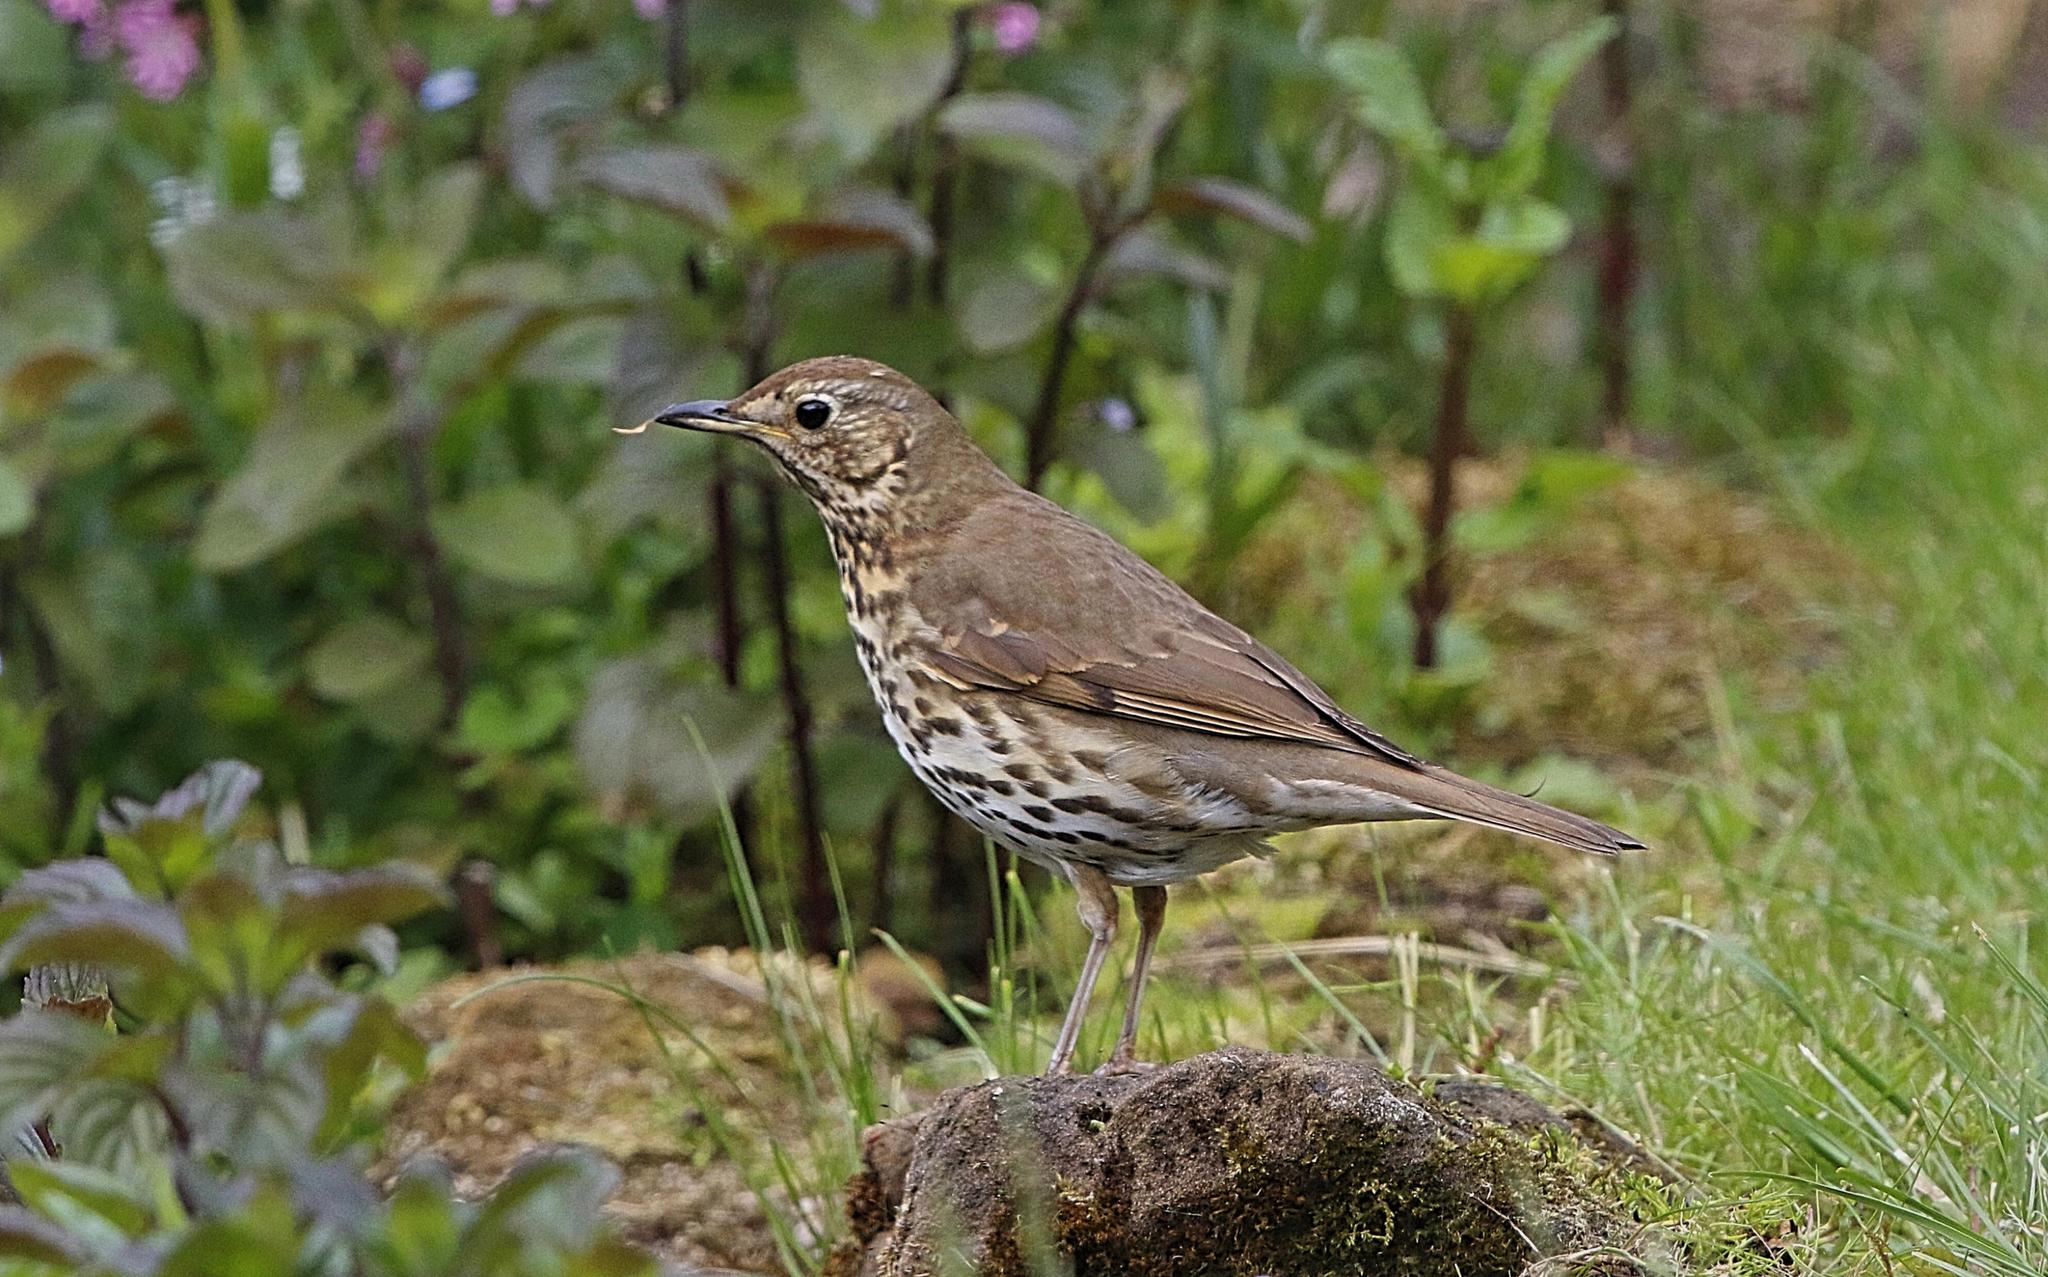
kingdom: Animalia
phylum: Chordata
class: Aves
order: Passeriformes
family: Turdidae
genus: Turdus
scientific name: Turdus philomelos
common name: Song thrush
